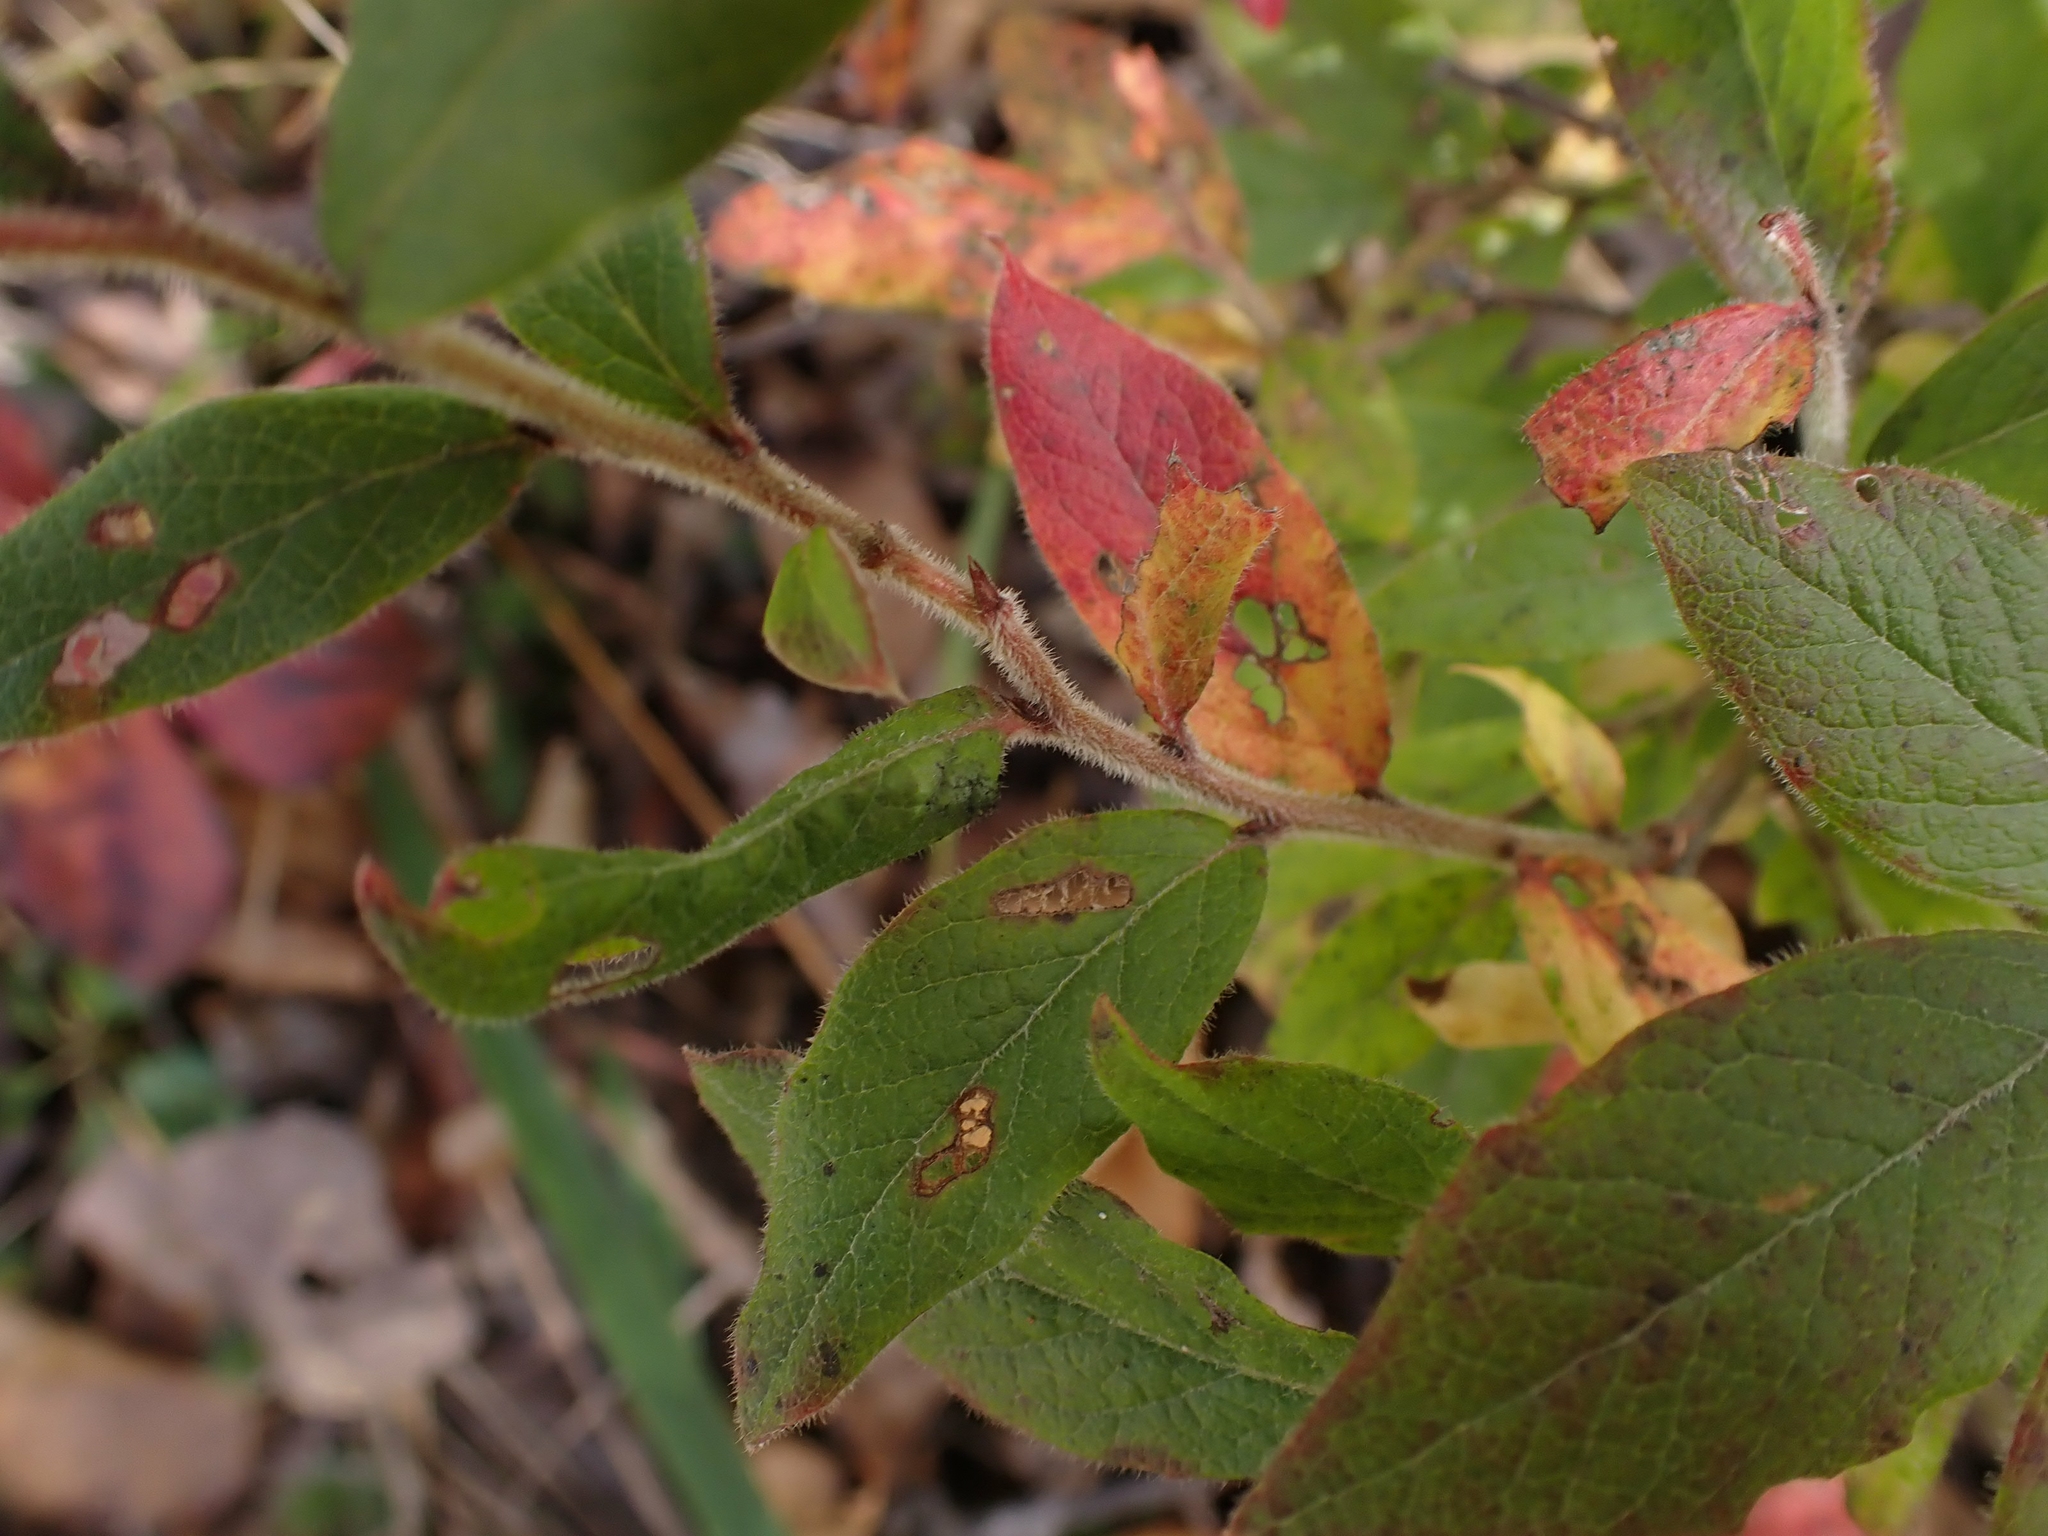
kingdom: Plantae
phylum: Tracheophyta
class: Magnoliopsida
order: Ericales
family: Ericaceae
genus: Vaccinium
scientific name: Vaccinium myrtilloides
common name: Canada blueberry
